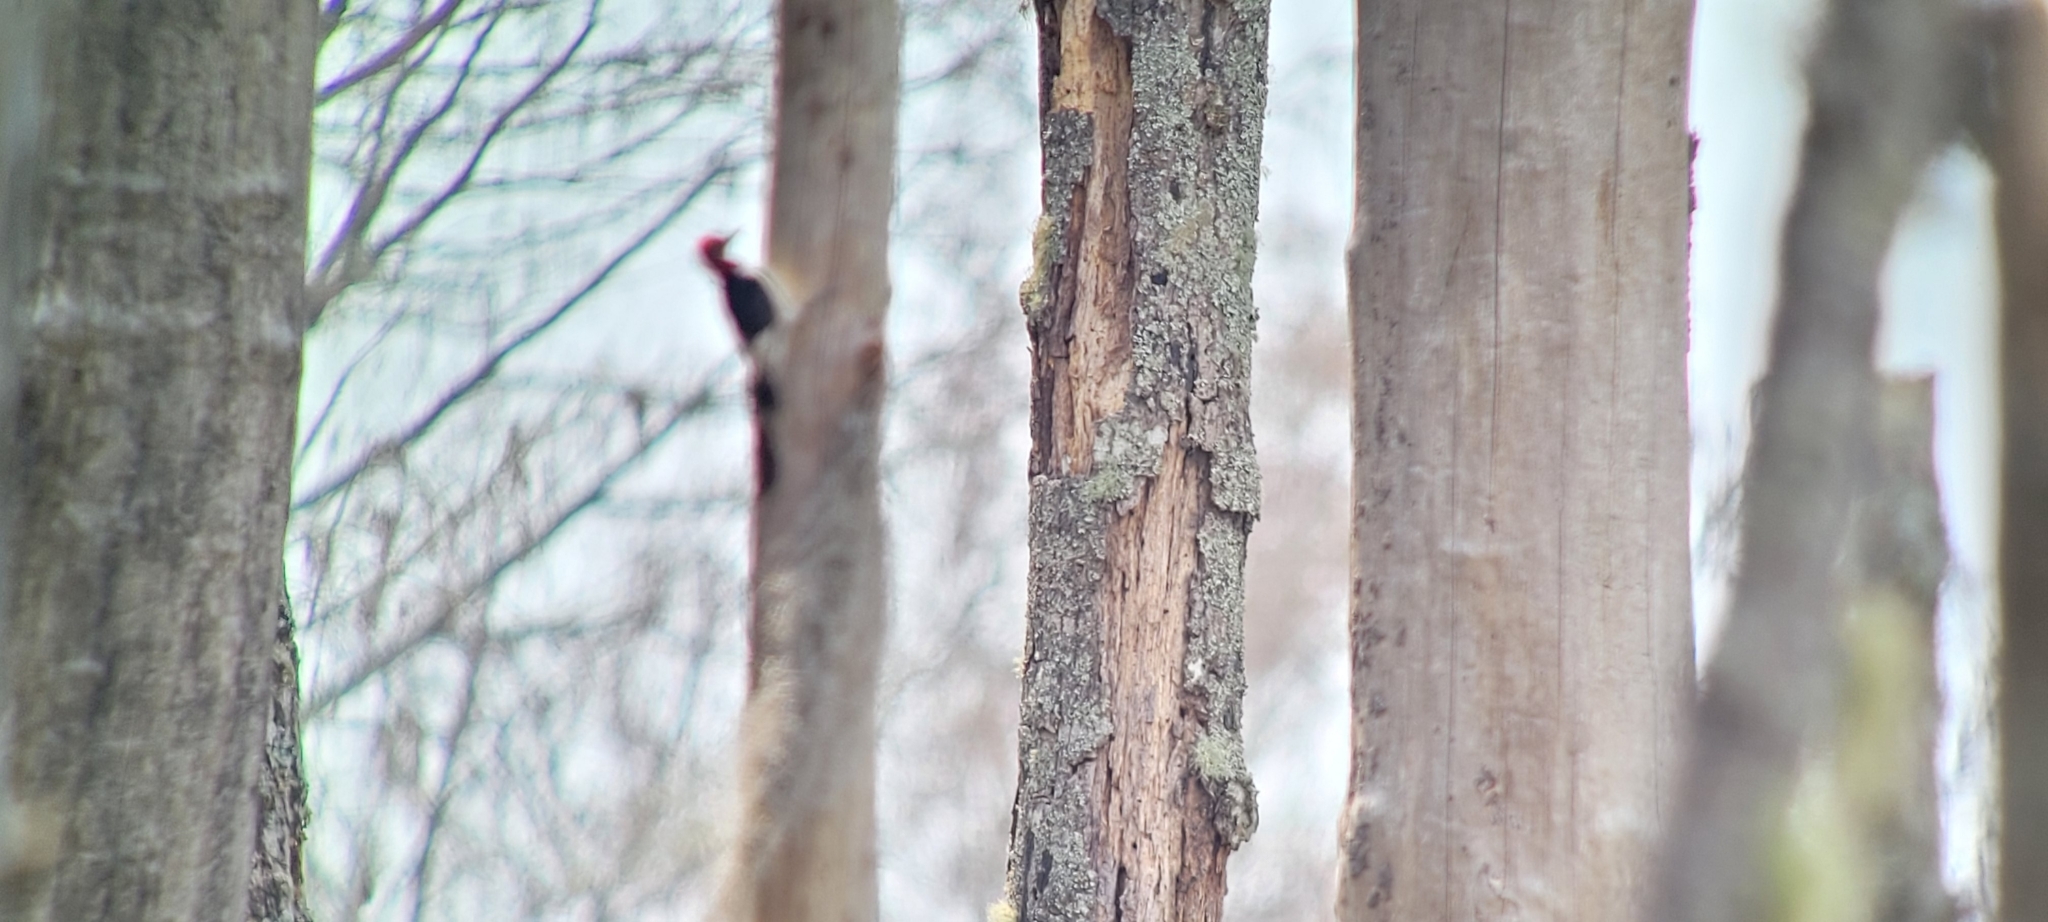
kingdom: Animalia
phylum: Chordata
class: Aves
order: Piciformes
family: Picidae
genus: Melanerpes
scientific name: Melanerpes erythrocephalus
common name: Red-headed woodpecker
